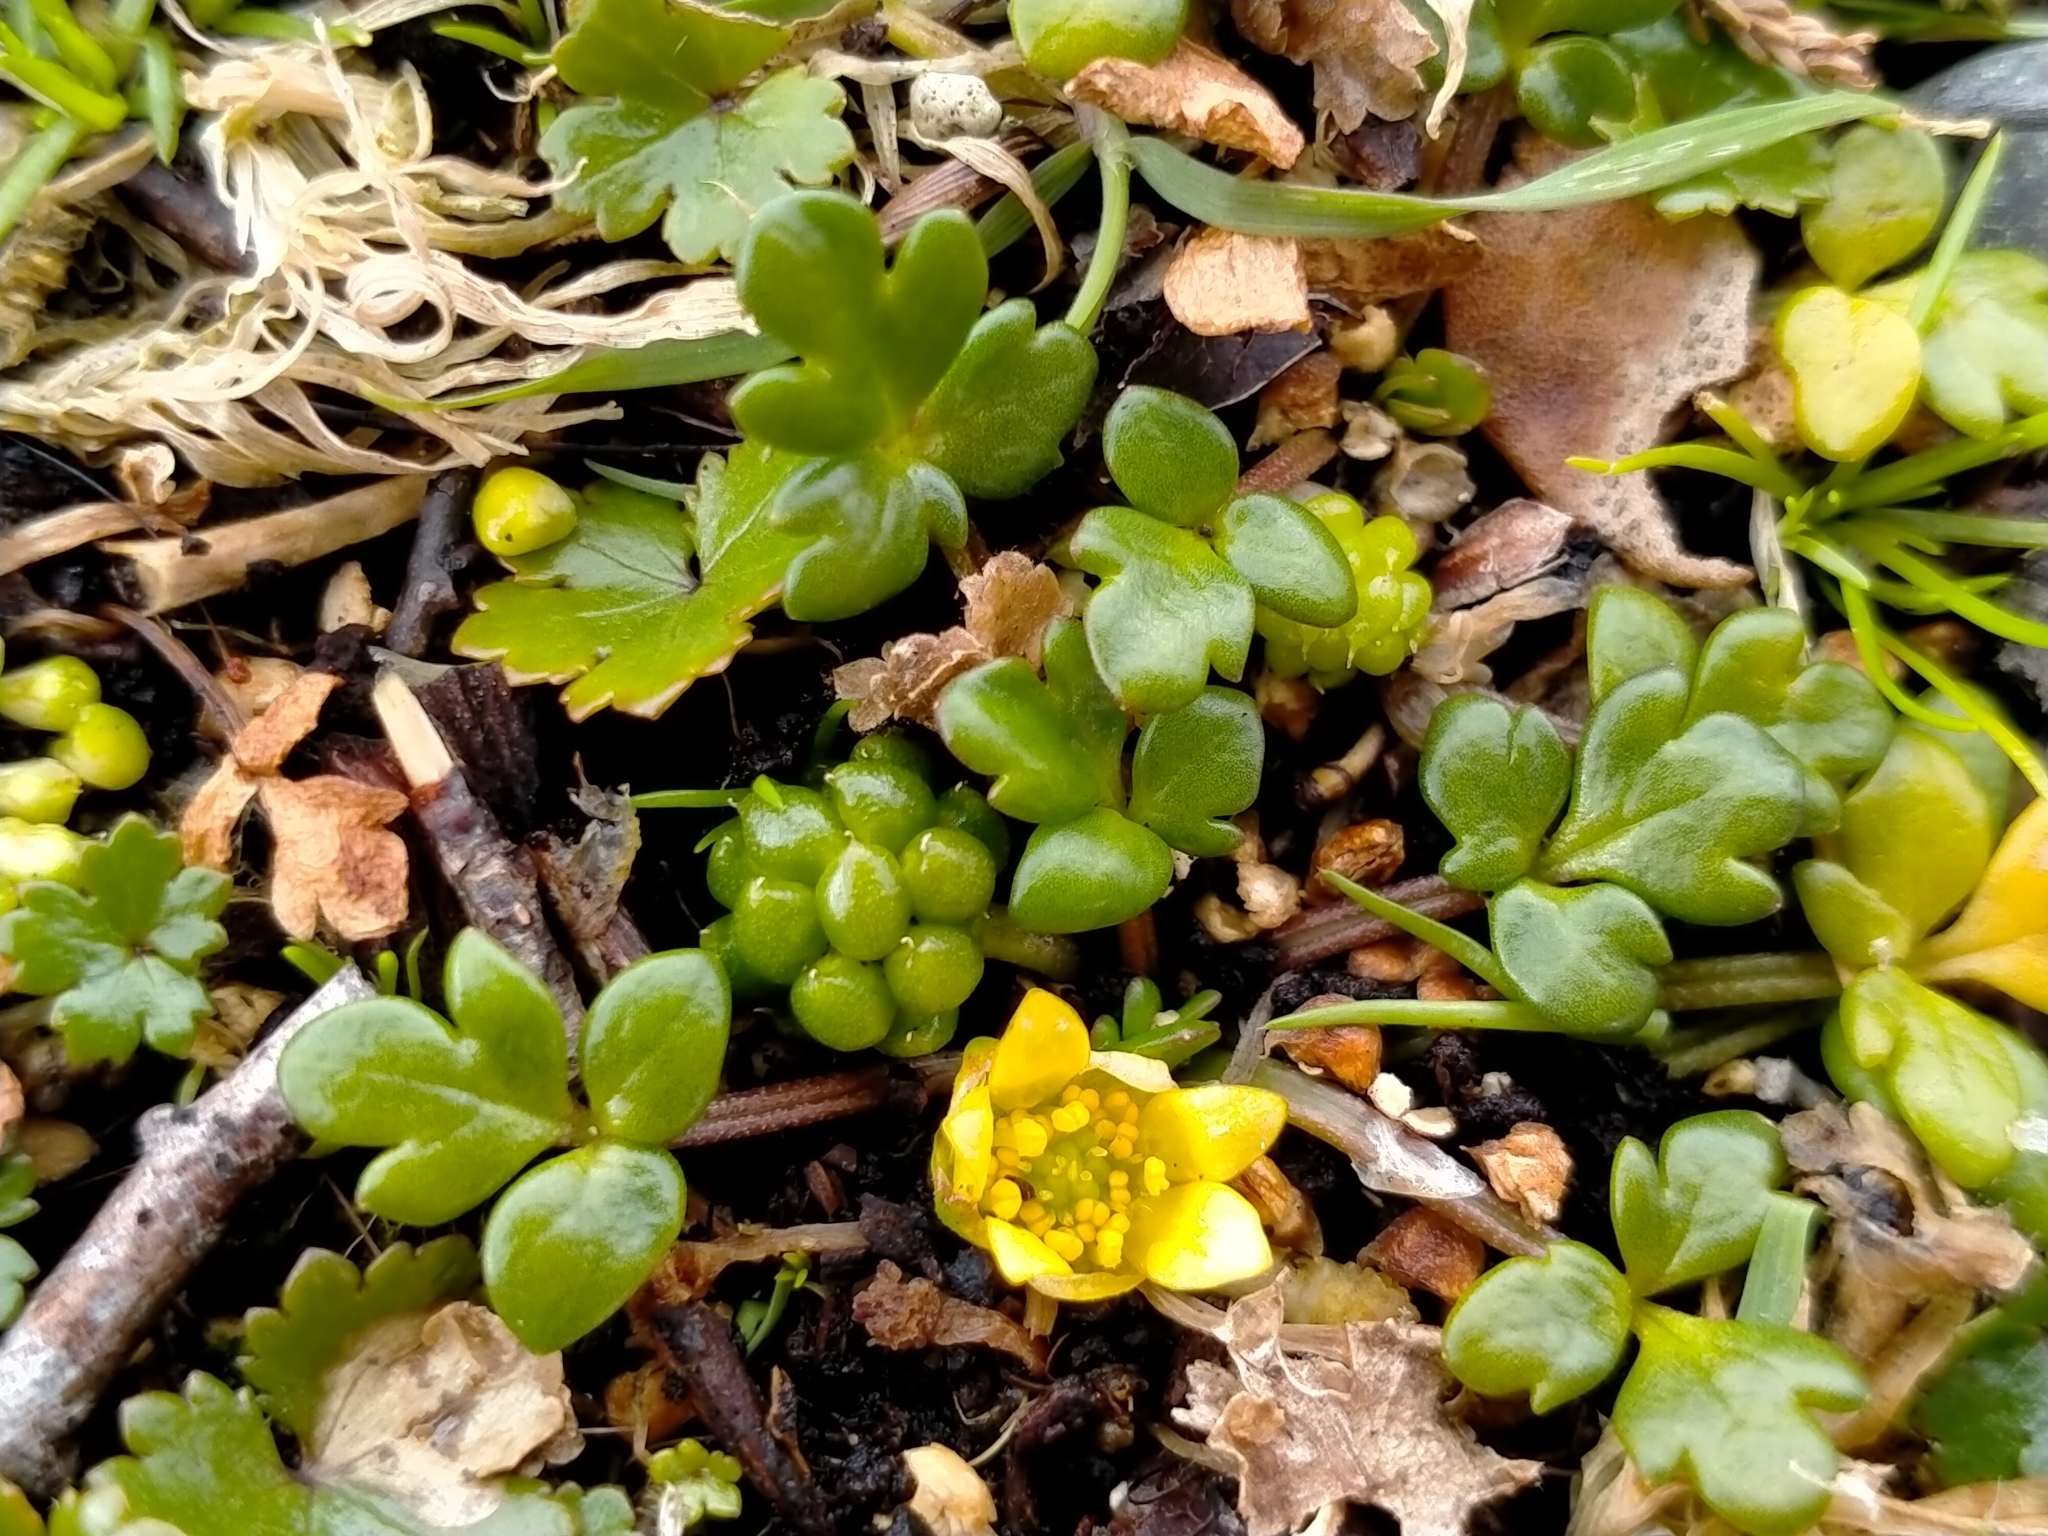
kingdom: Plantae
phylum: Tracheophyta
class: Magnoliopsida
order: Ranunculales
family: Ranunculaceae
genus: Ranunculus
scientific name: Ranunculus acaulis
